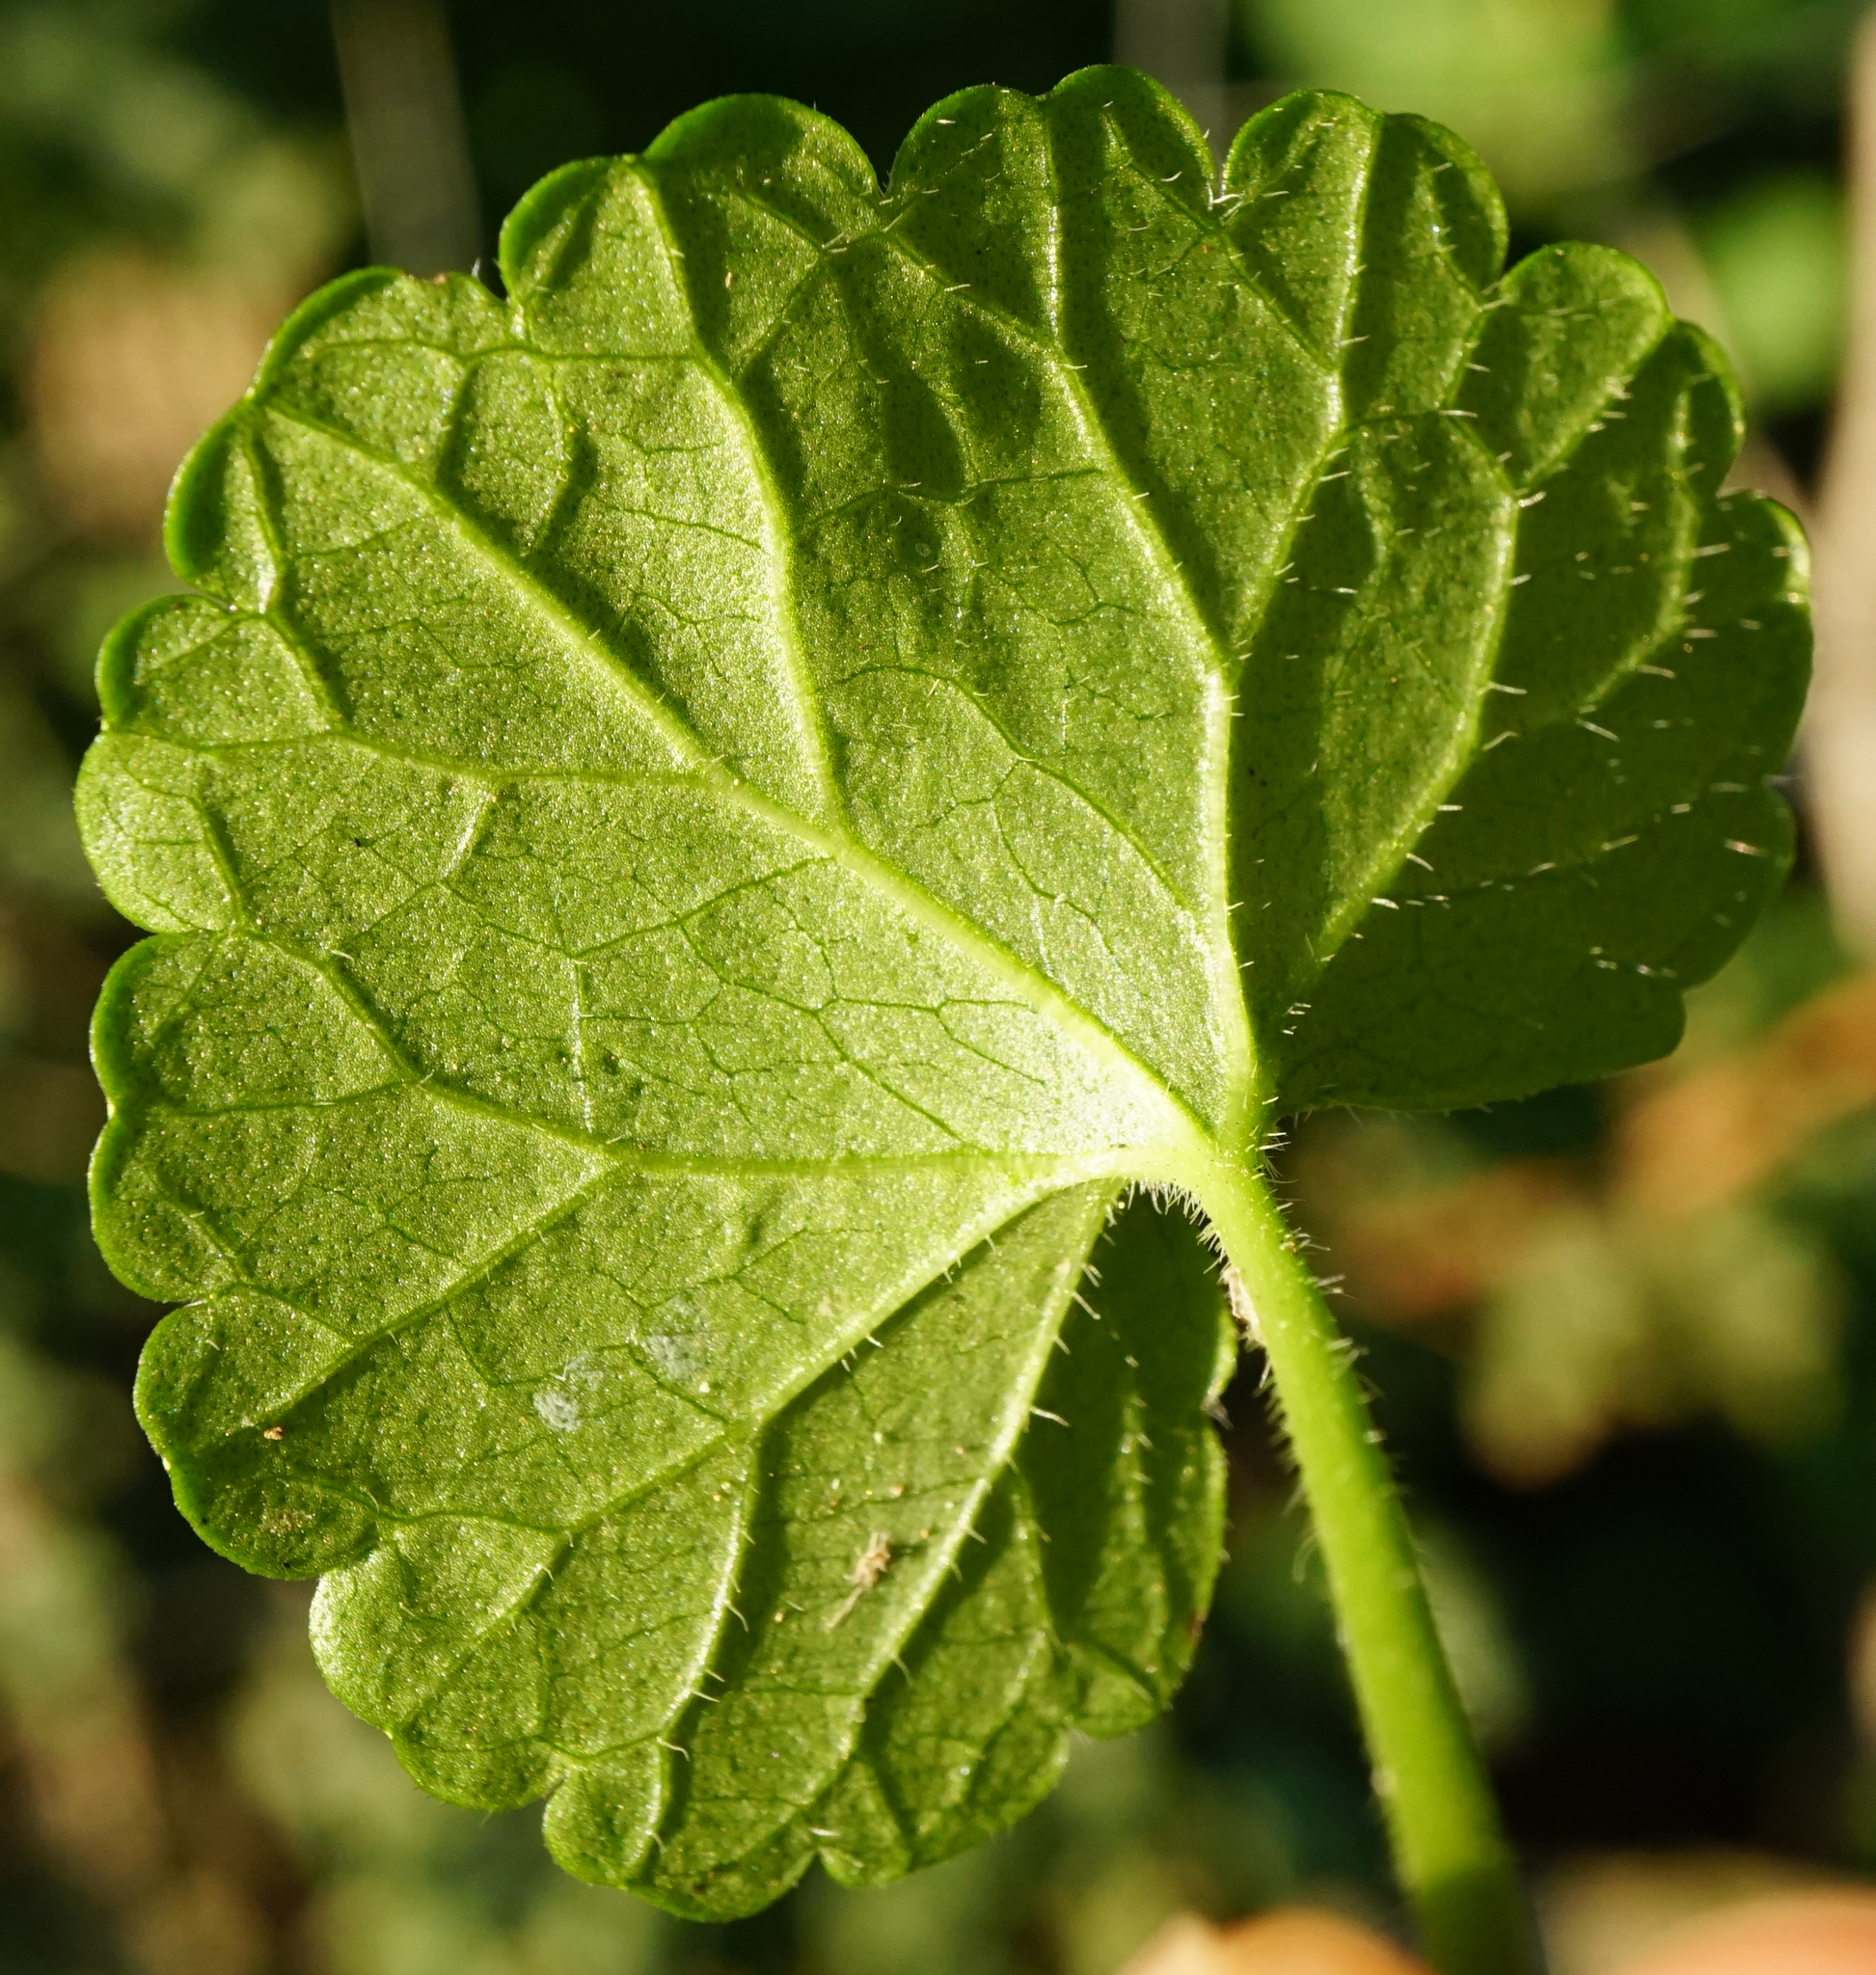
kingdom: Plantae
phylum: Tracheophyta
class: Magnoliopsida
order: Lamiales
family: Lamiaceae
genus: Glechoma
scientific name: Glechoma hederacea
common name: Ground ivy
